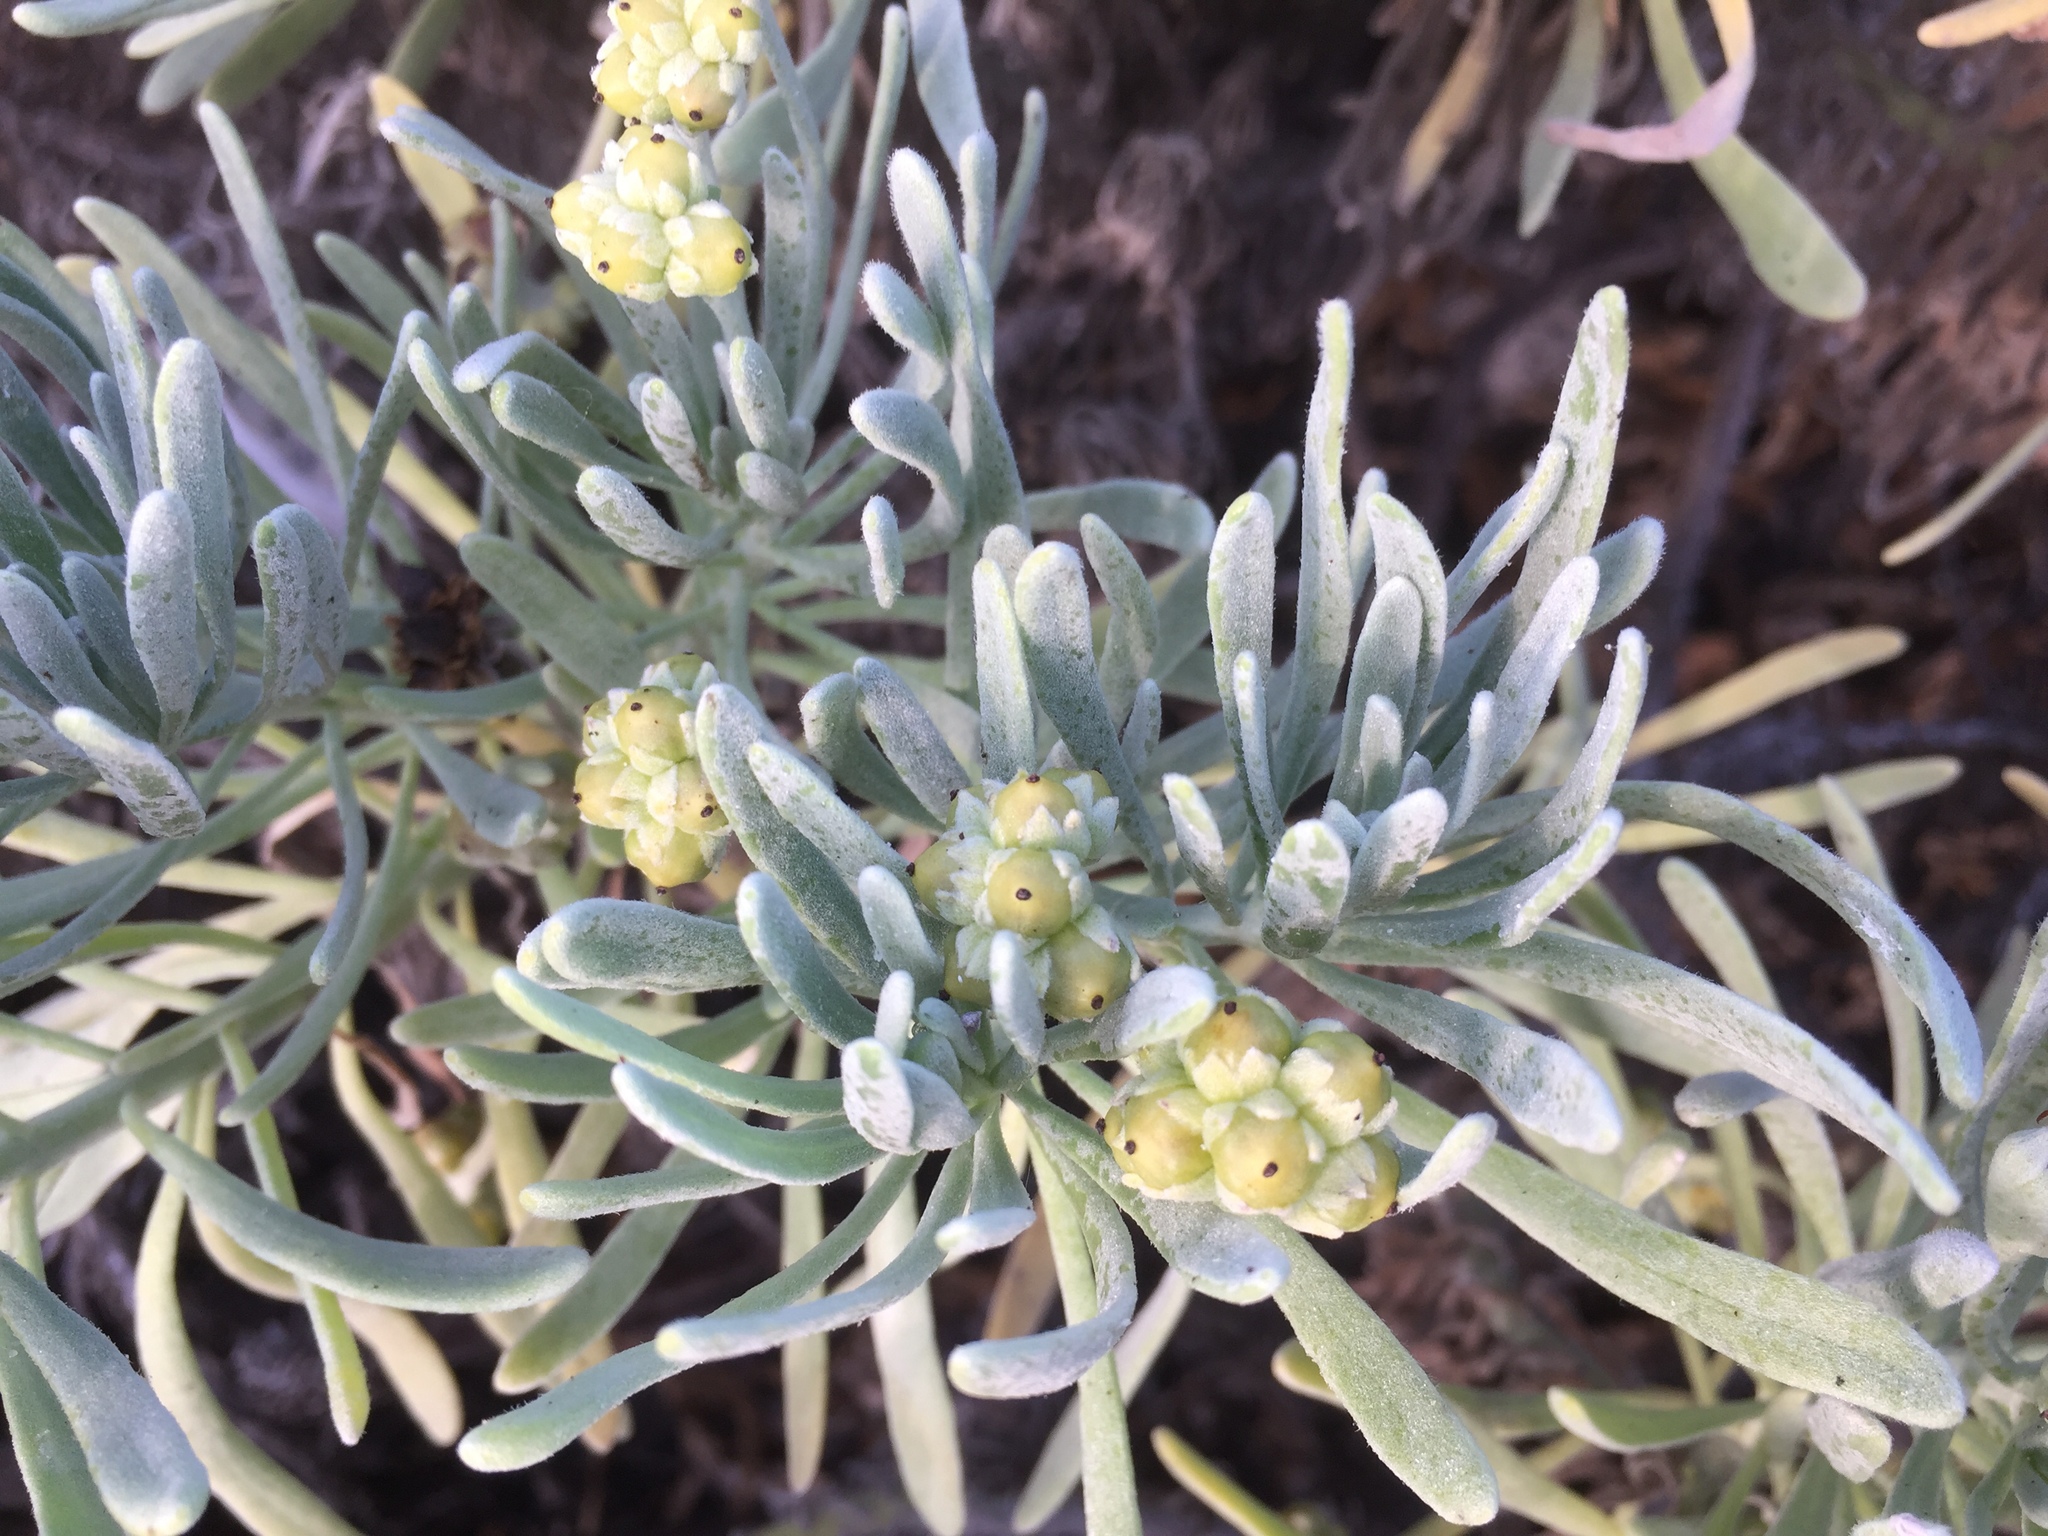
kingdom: Plantae
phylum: Tracheophyta
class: Magnoliopsida
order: Boraginales
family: Heliotropiaceae
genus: Tournefortia
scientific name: Tournefortia gnaphalodes
